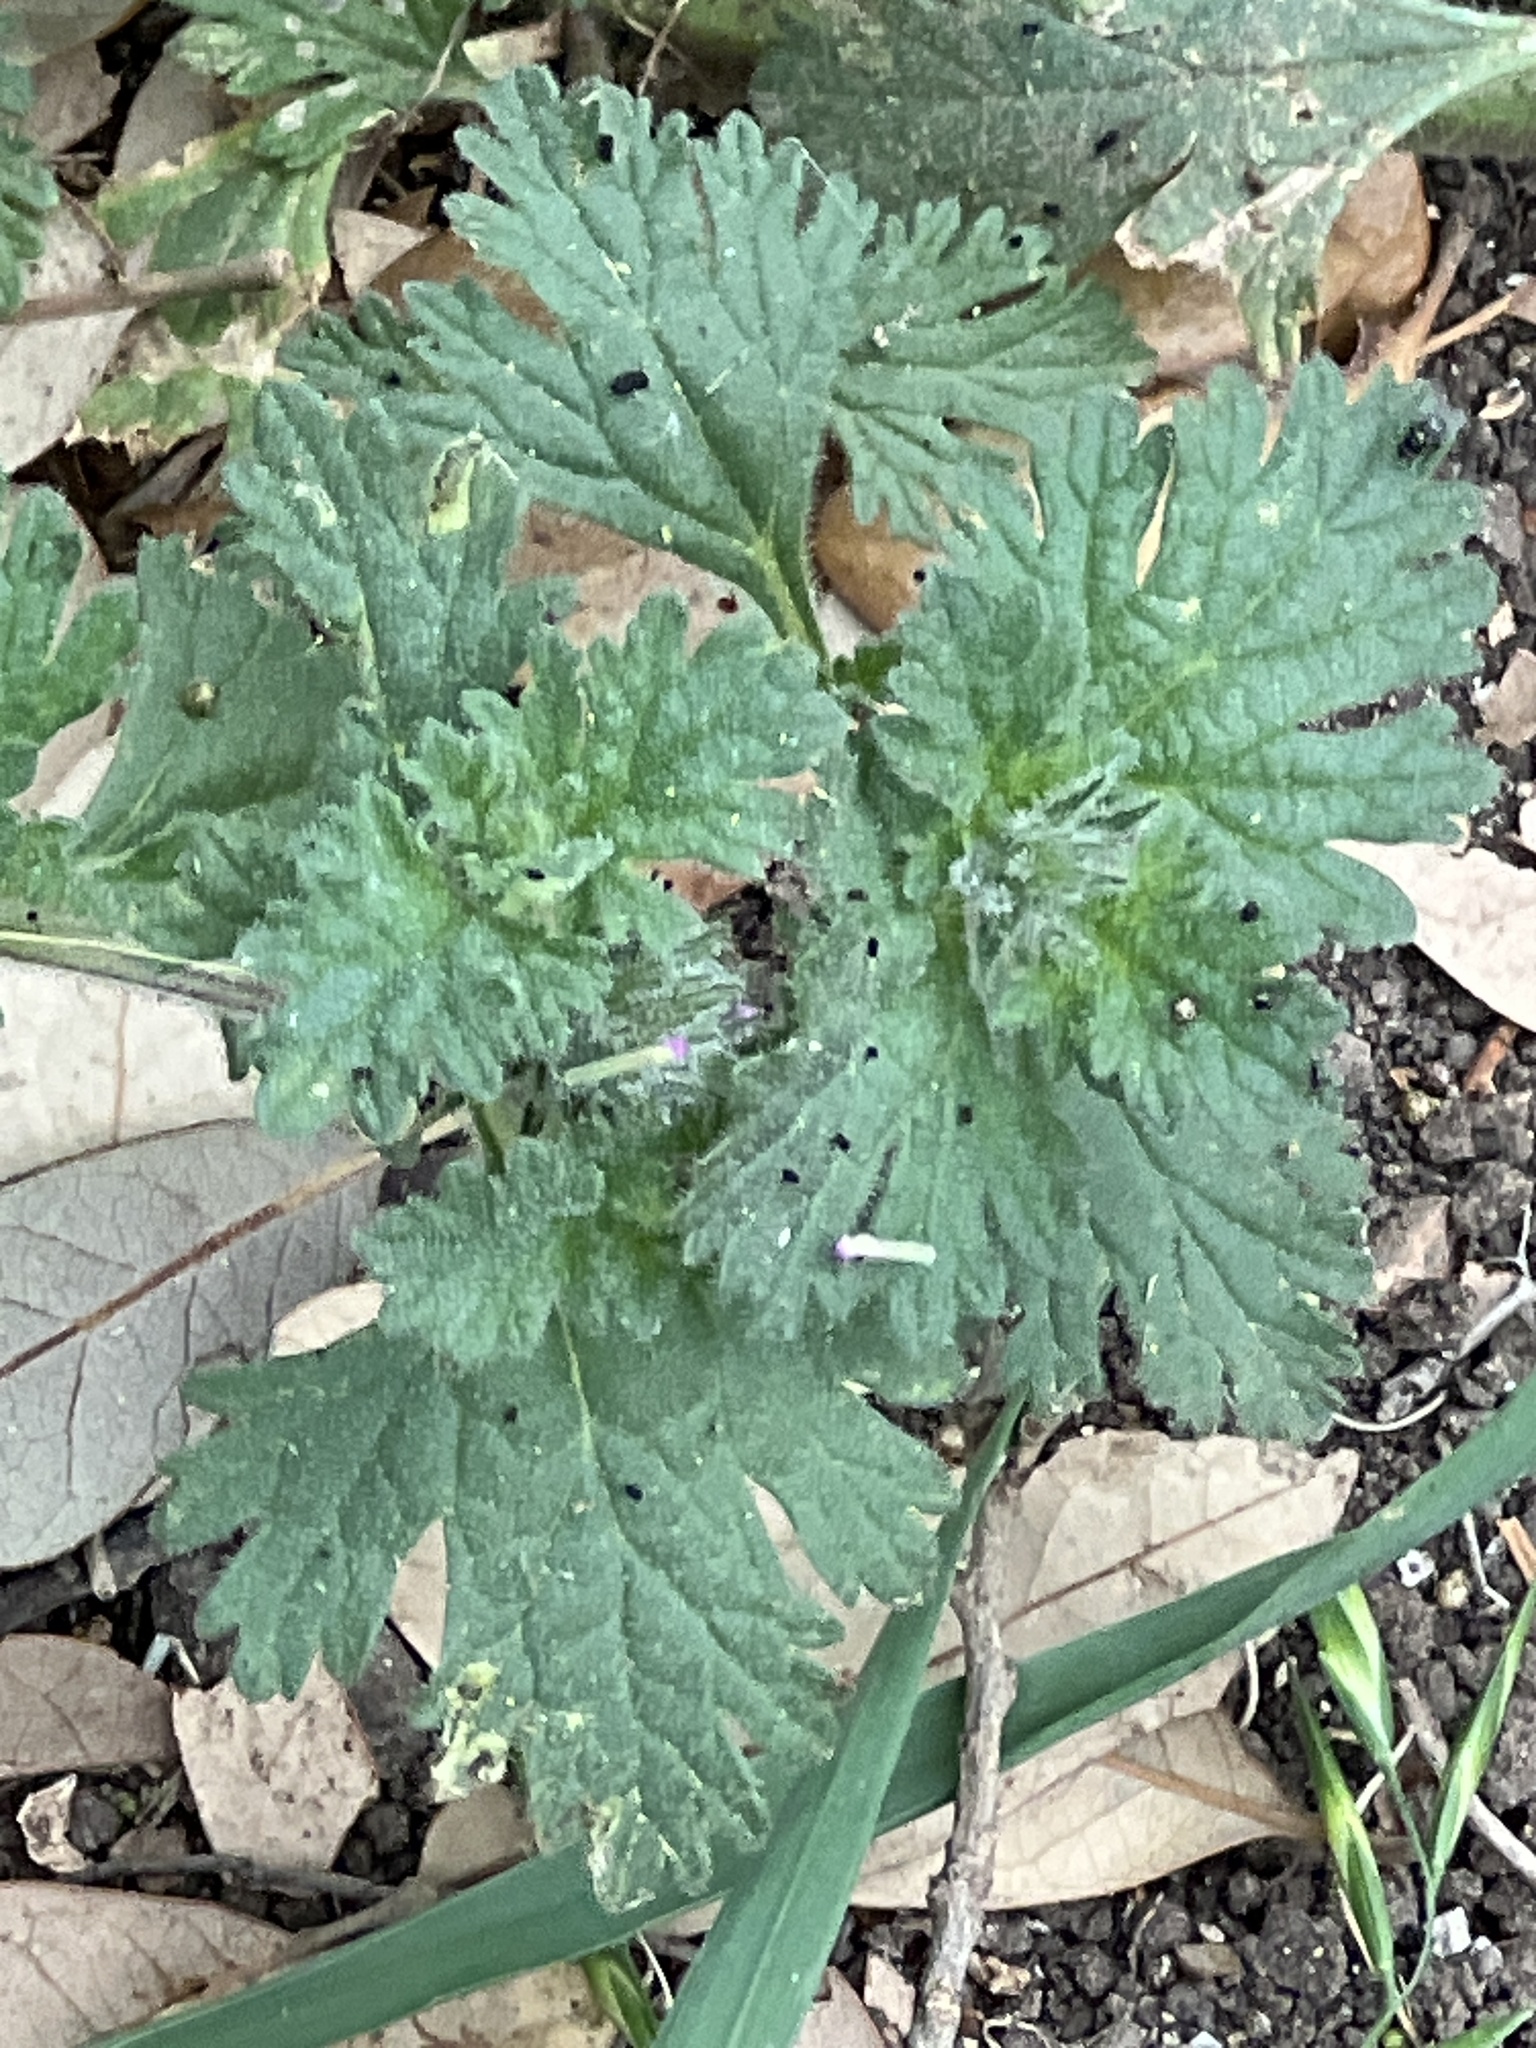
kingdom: Plantae
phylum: Tracheophyta
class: Magnoliopsida
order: Lamiales
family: Verbenaceae
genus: Verbena
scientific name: Verbena pumila
